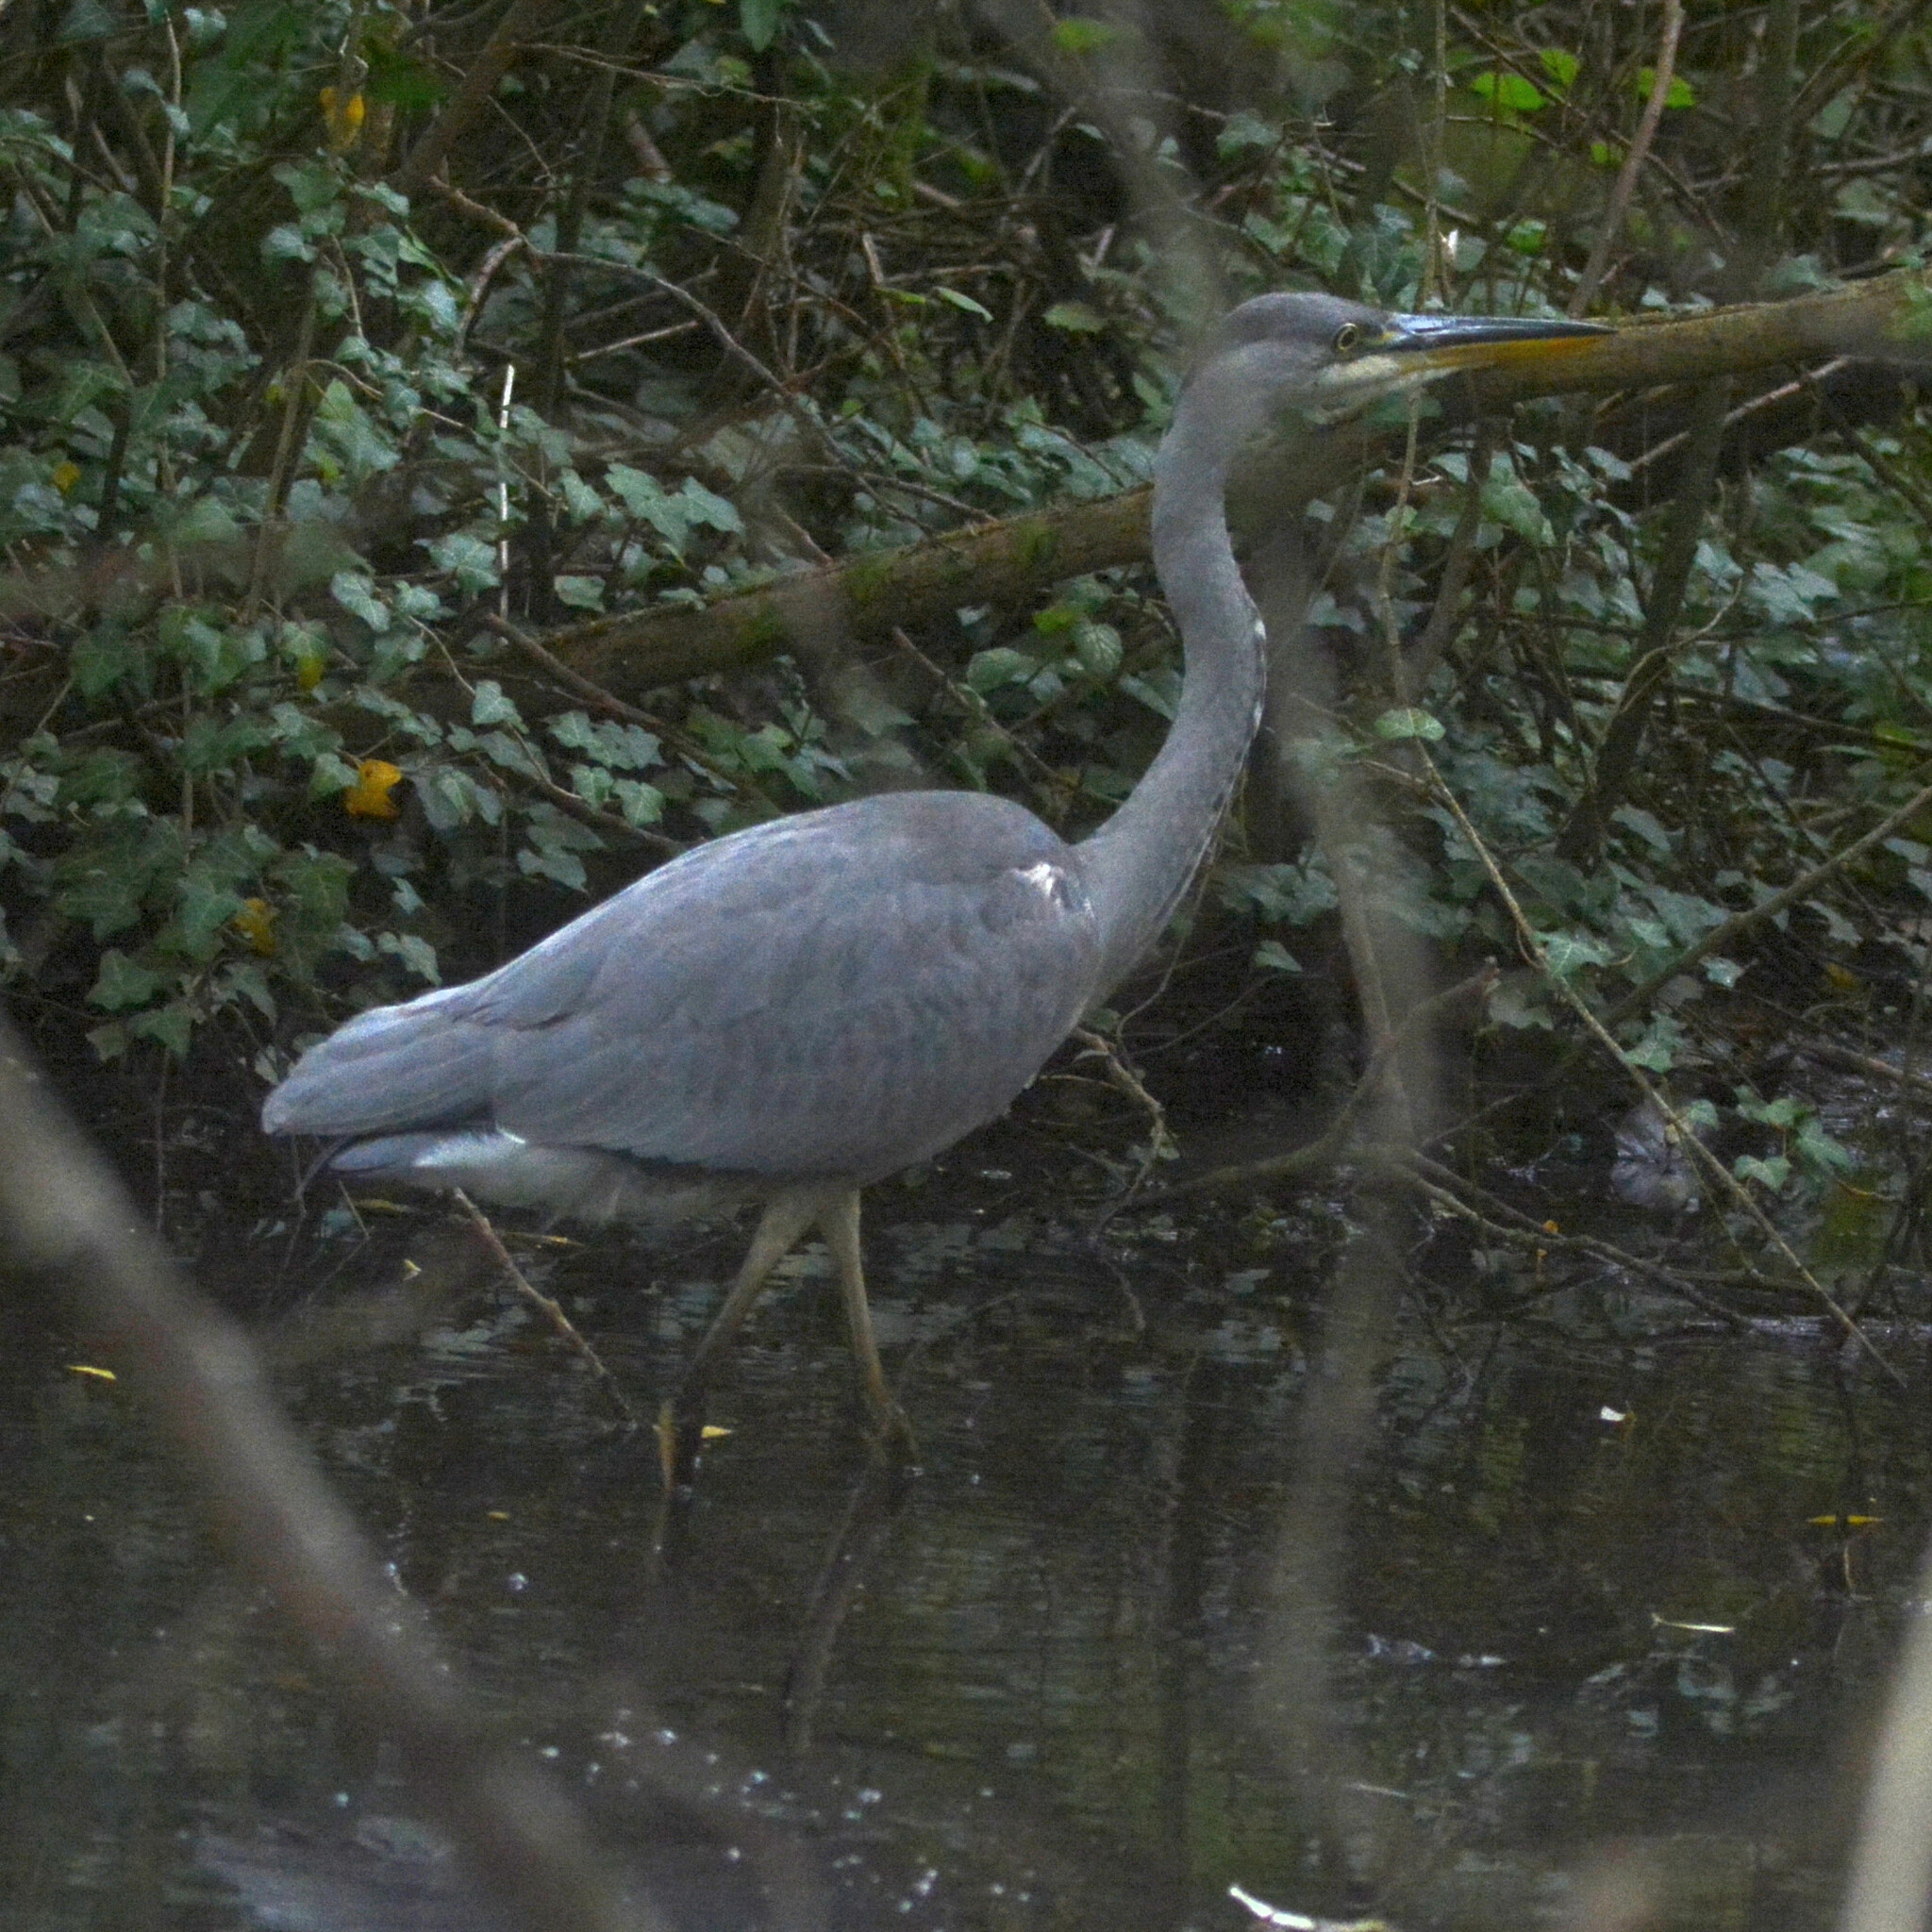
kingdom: Animalia
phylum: Chordata
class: Aves
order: Pelecaniformes
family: Ardeidae
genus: Ardea
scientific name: Ardea cinerea
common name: Grey heron
